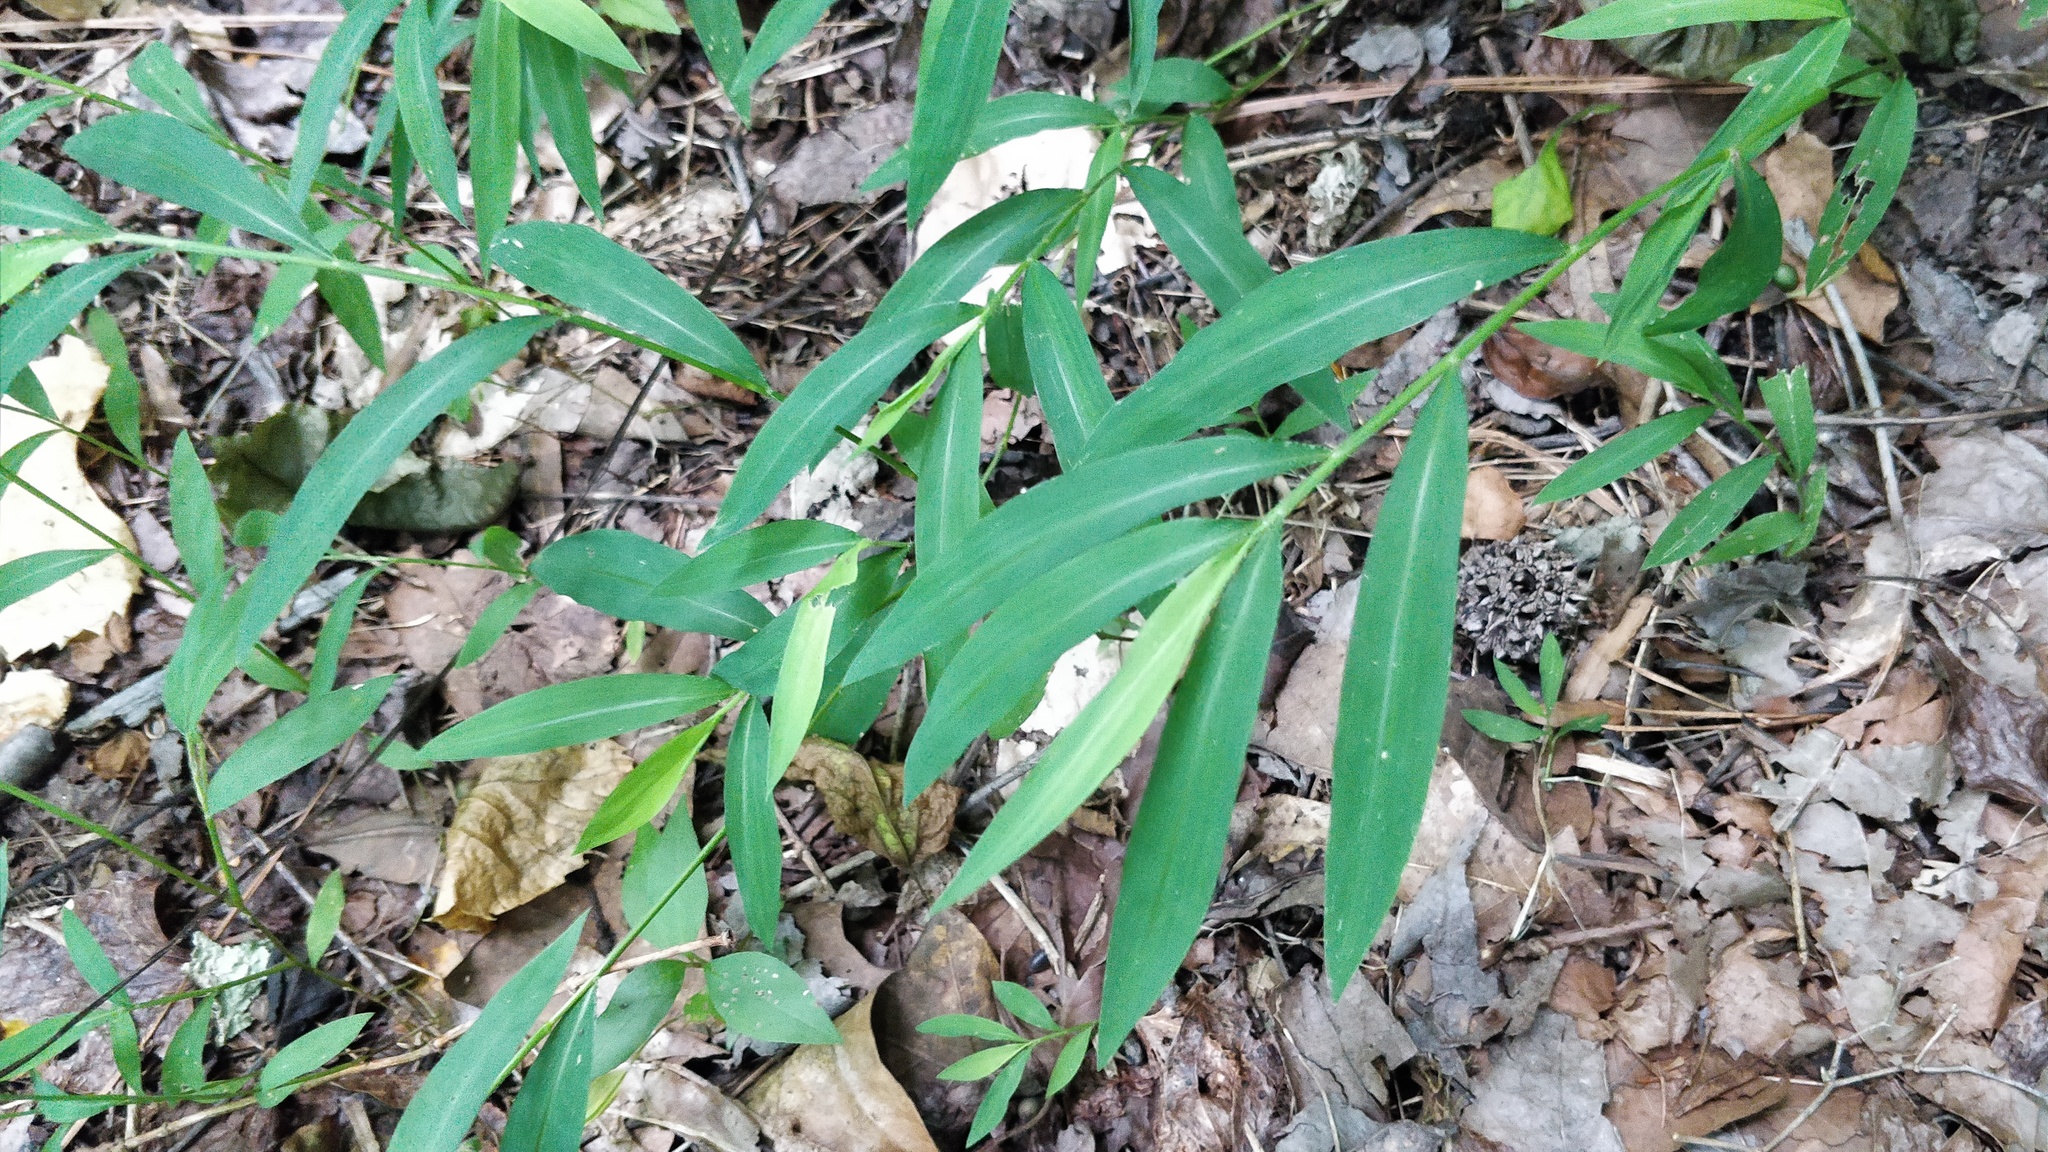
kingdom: Plantae
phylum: Tracheophyta
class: Liliopsida
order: Poales
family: Poaceae
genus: Microstegium
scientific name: Microstegium vimineum
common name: Japanese stiltgrass
